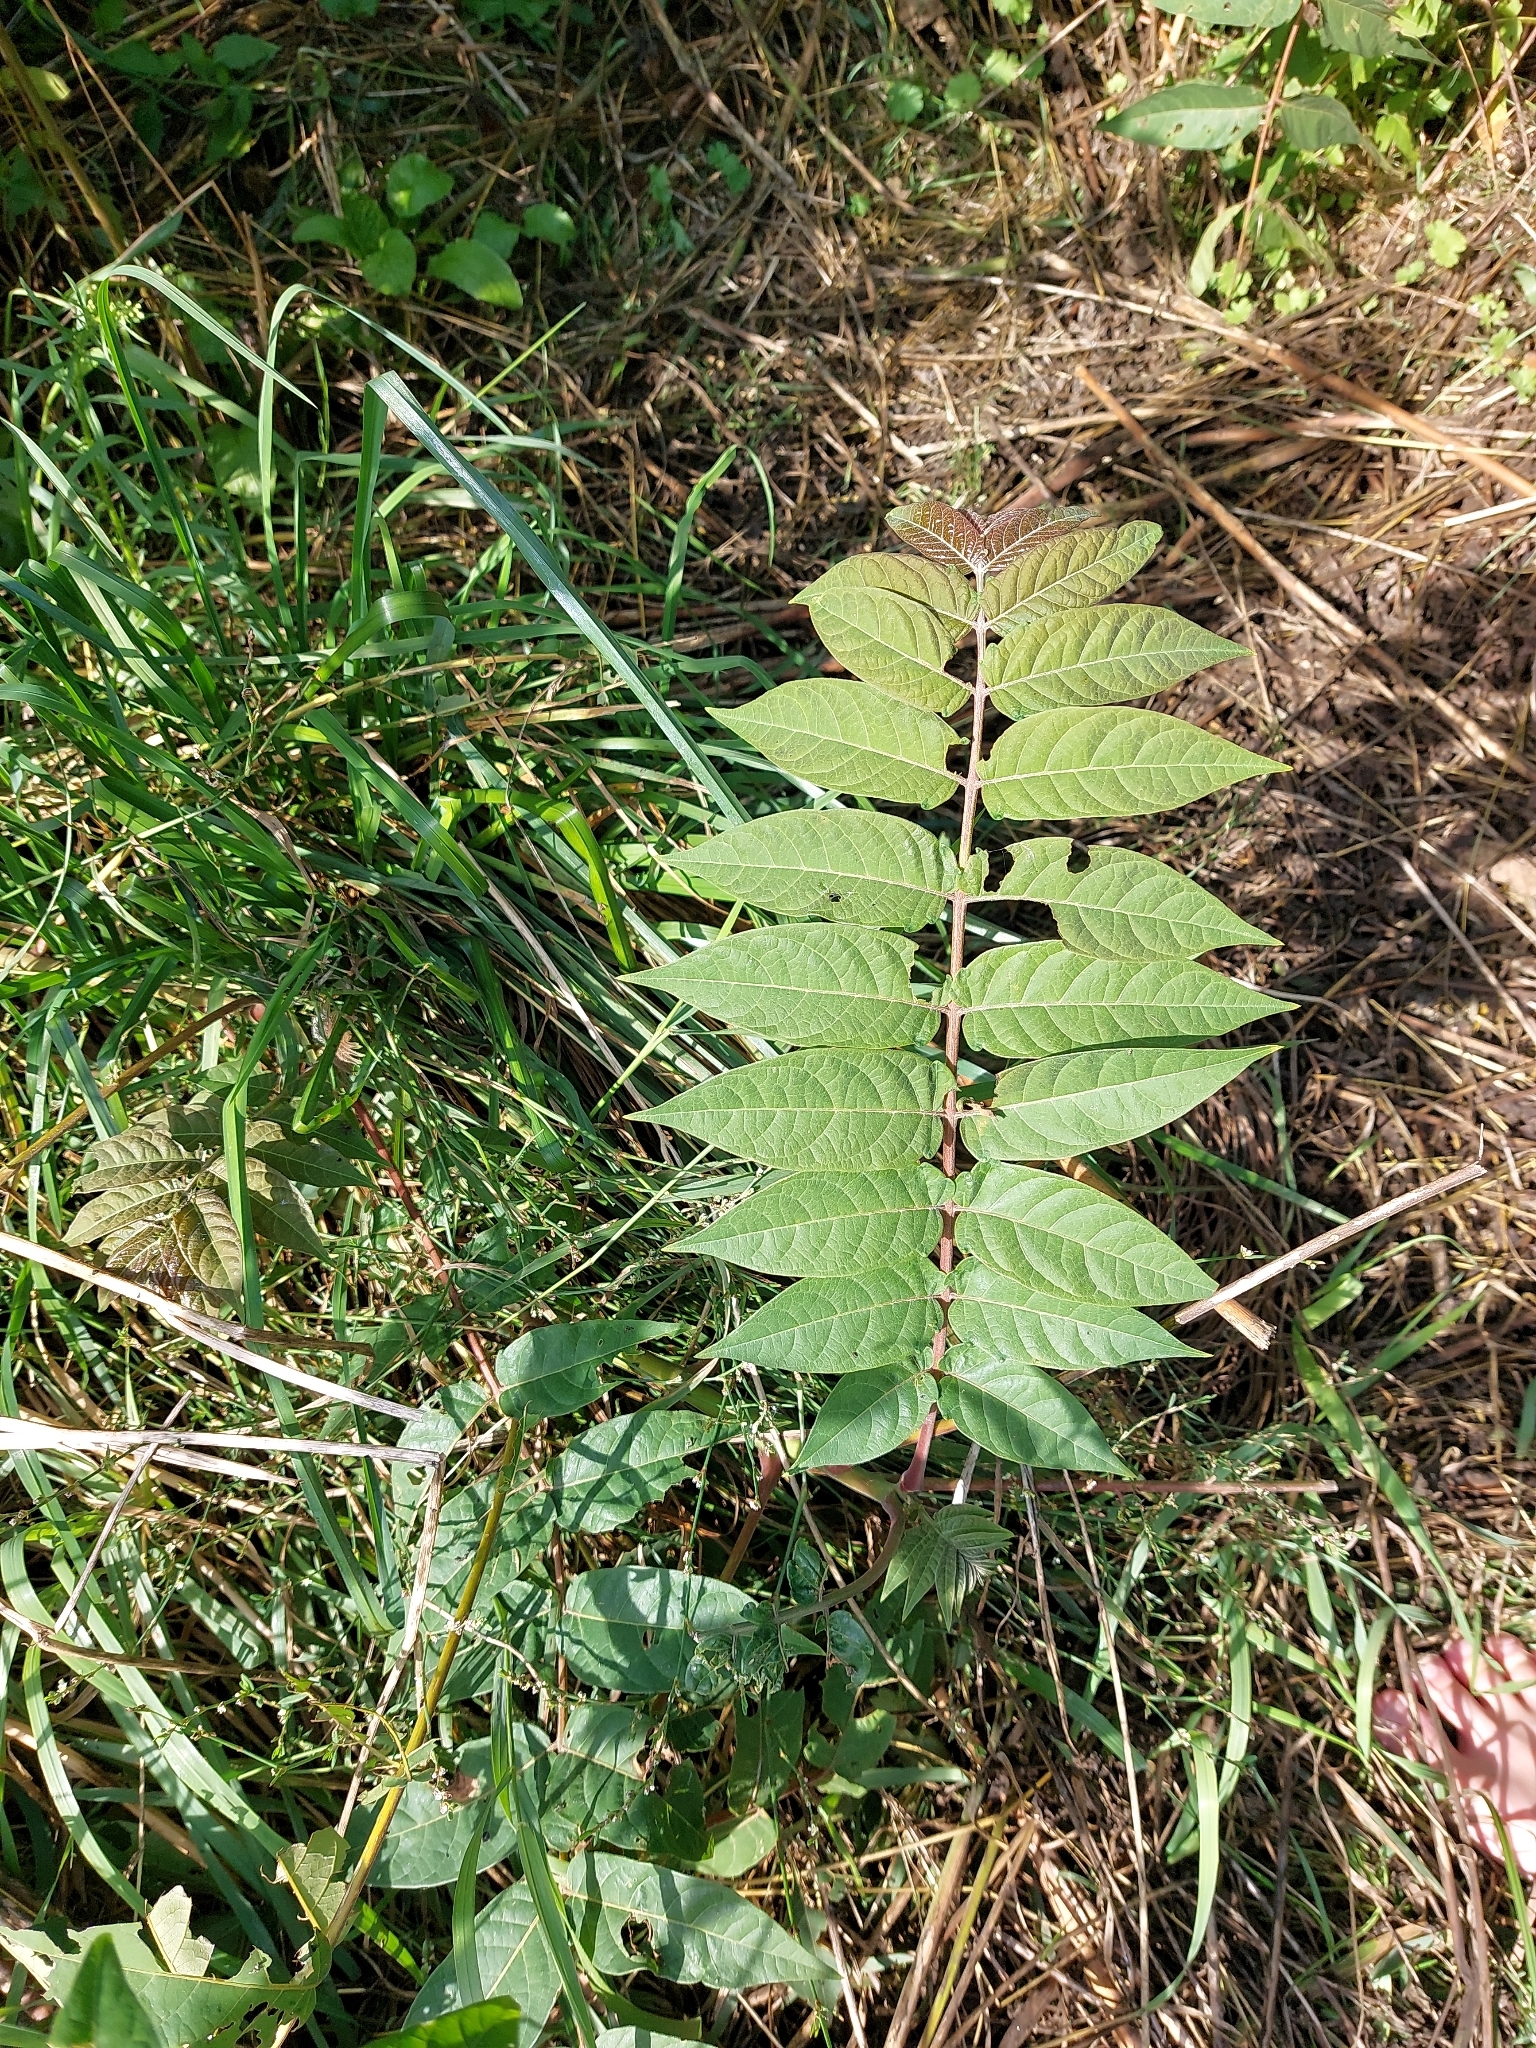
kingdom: Plantae
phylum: Tracheophyta
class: Magnoliopsida
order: Sapindales
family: Simaroubaceae
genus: Ailanthus
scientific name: Ailanthus altissima
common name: Tree-of-heaven
